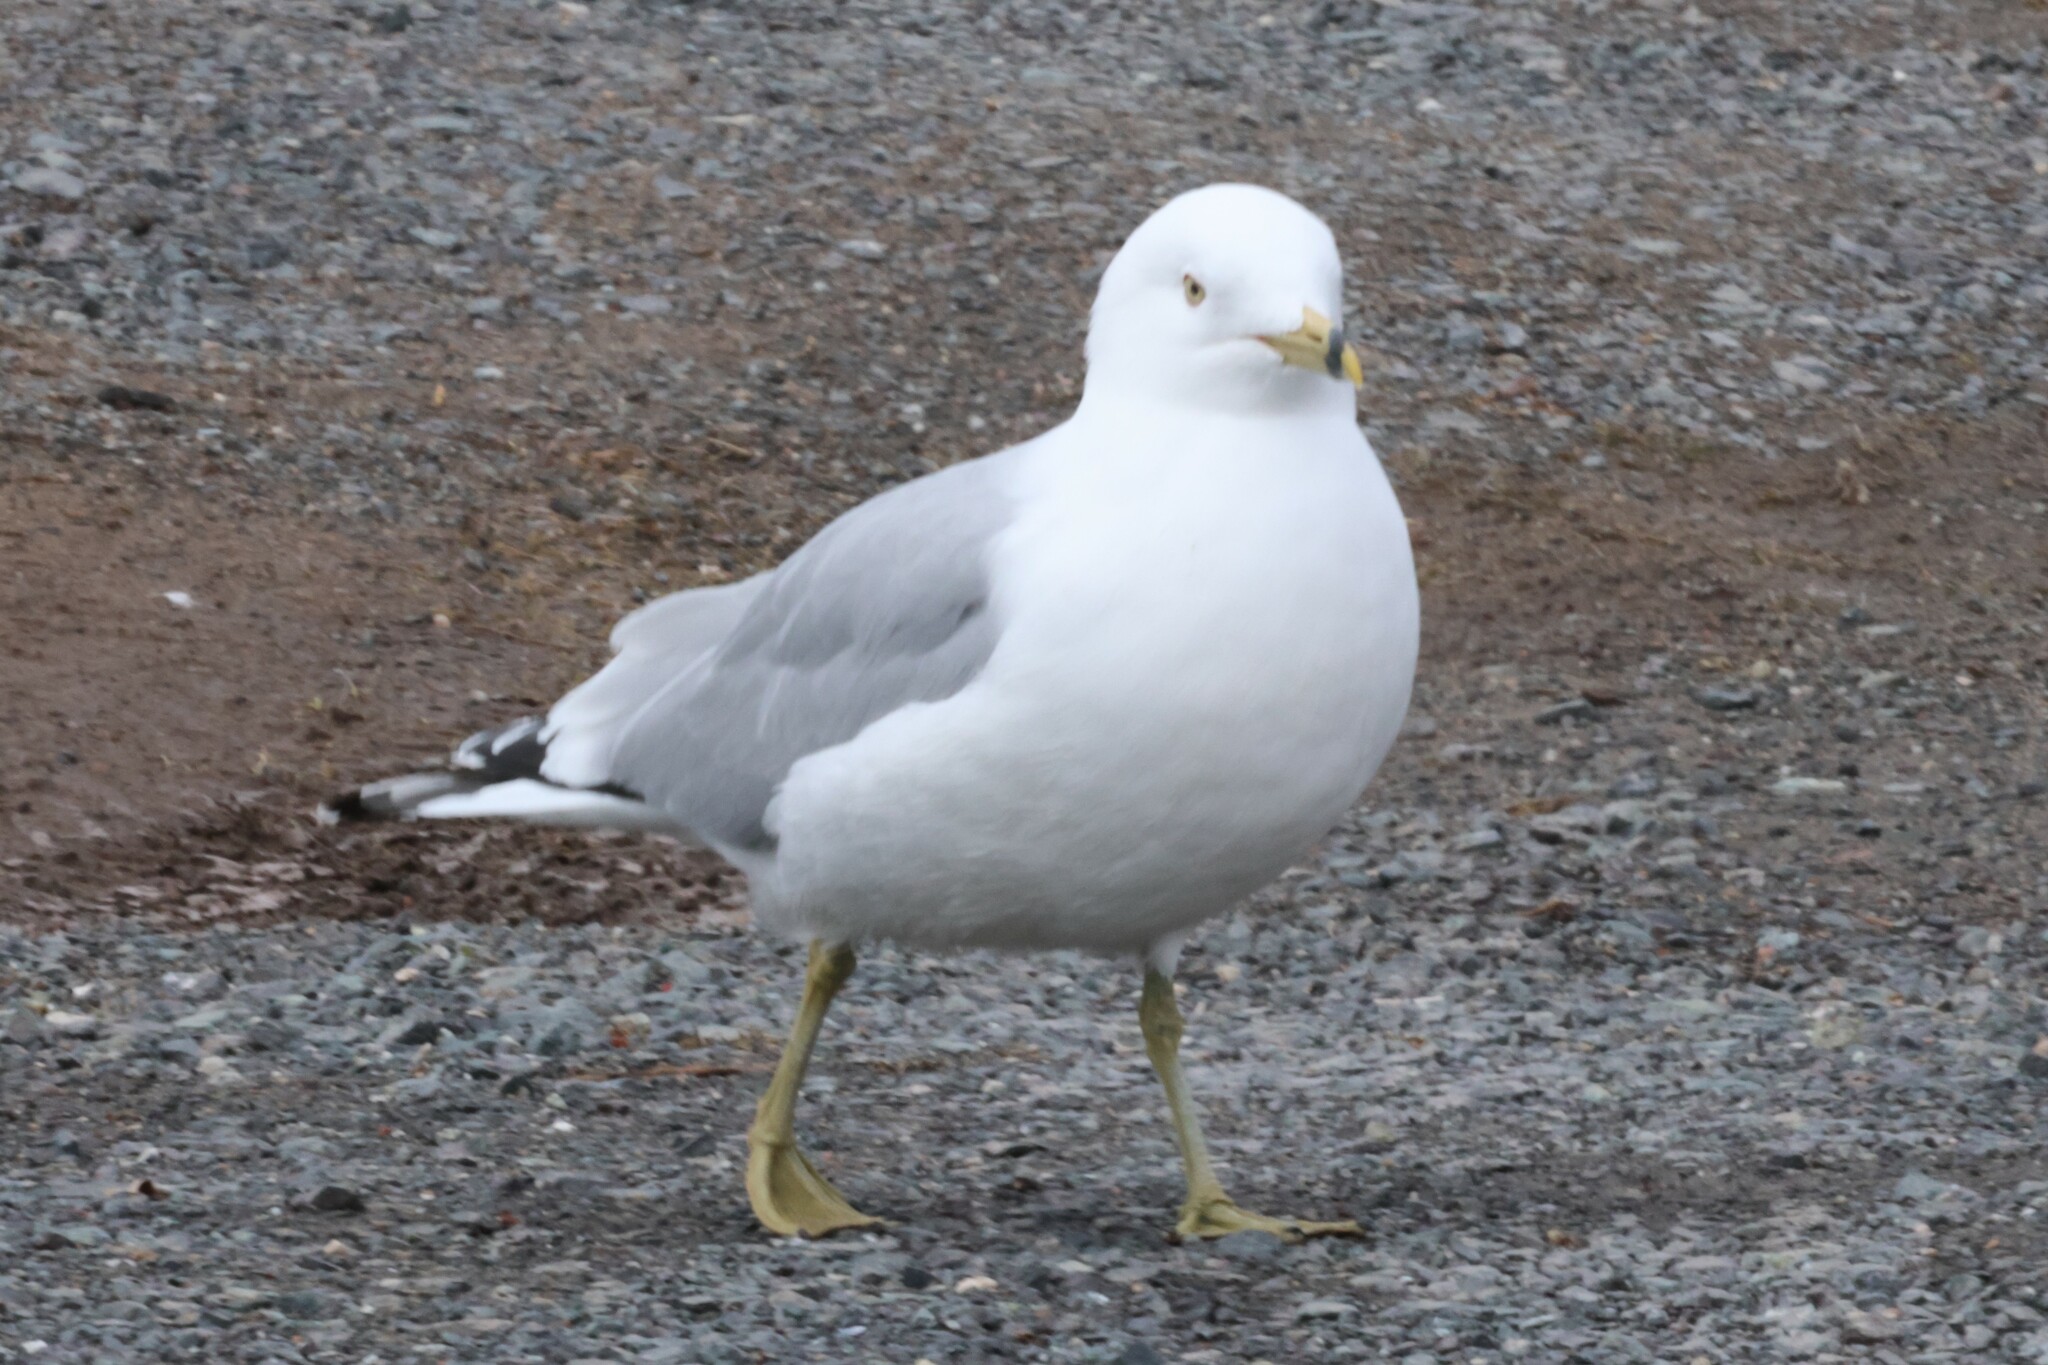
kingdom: Animalia
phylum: Chordata
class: Aves
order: Charadriiformes
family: Laridae
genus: Larus
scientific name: Larus delawarensis
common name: Ring-billed gull
